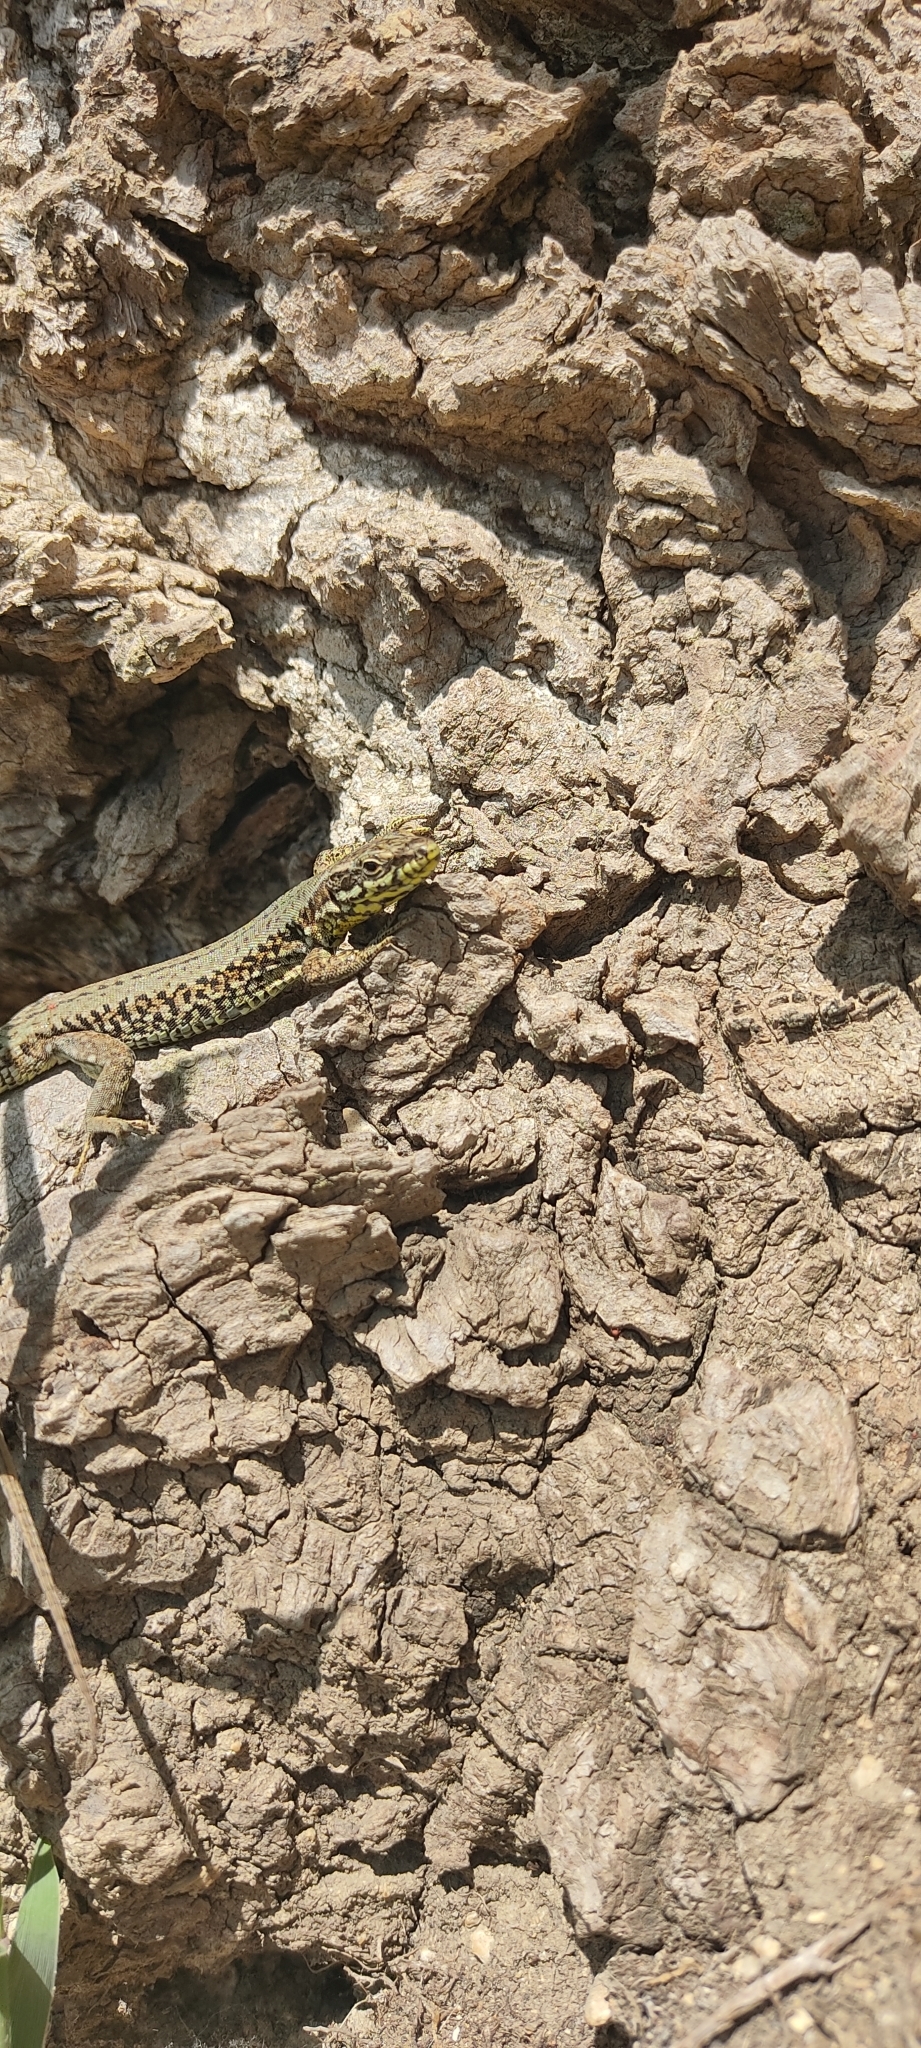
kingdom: Animalia
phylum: Chordata
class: Squamata
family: Lacertidae
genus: Podarcis
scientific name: Podarcis muralis
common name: Common wall lizard
